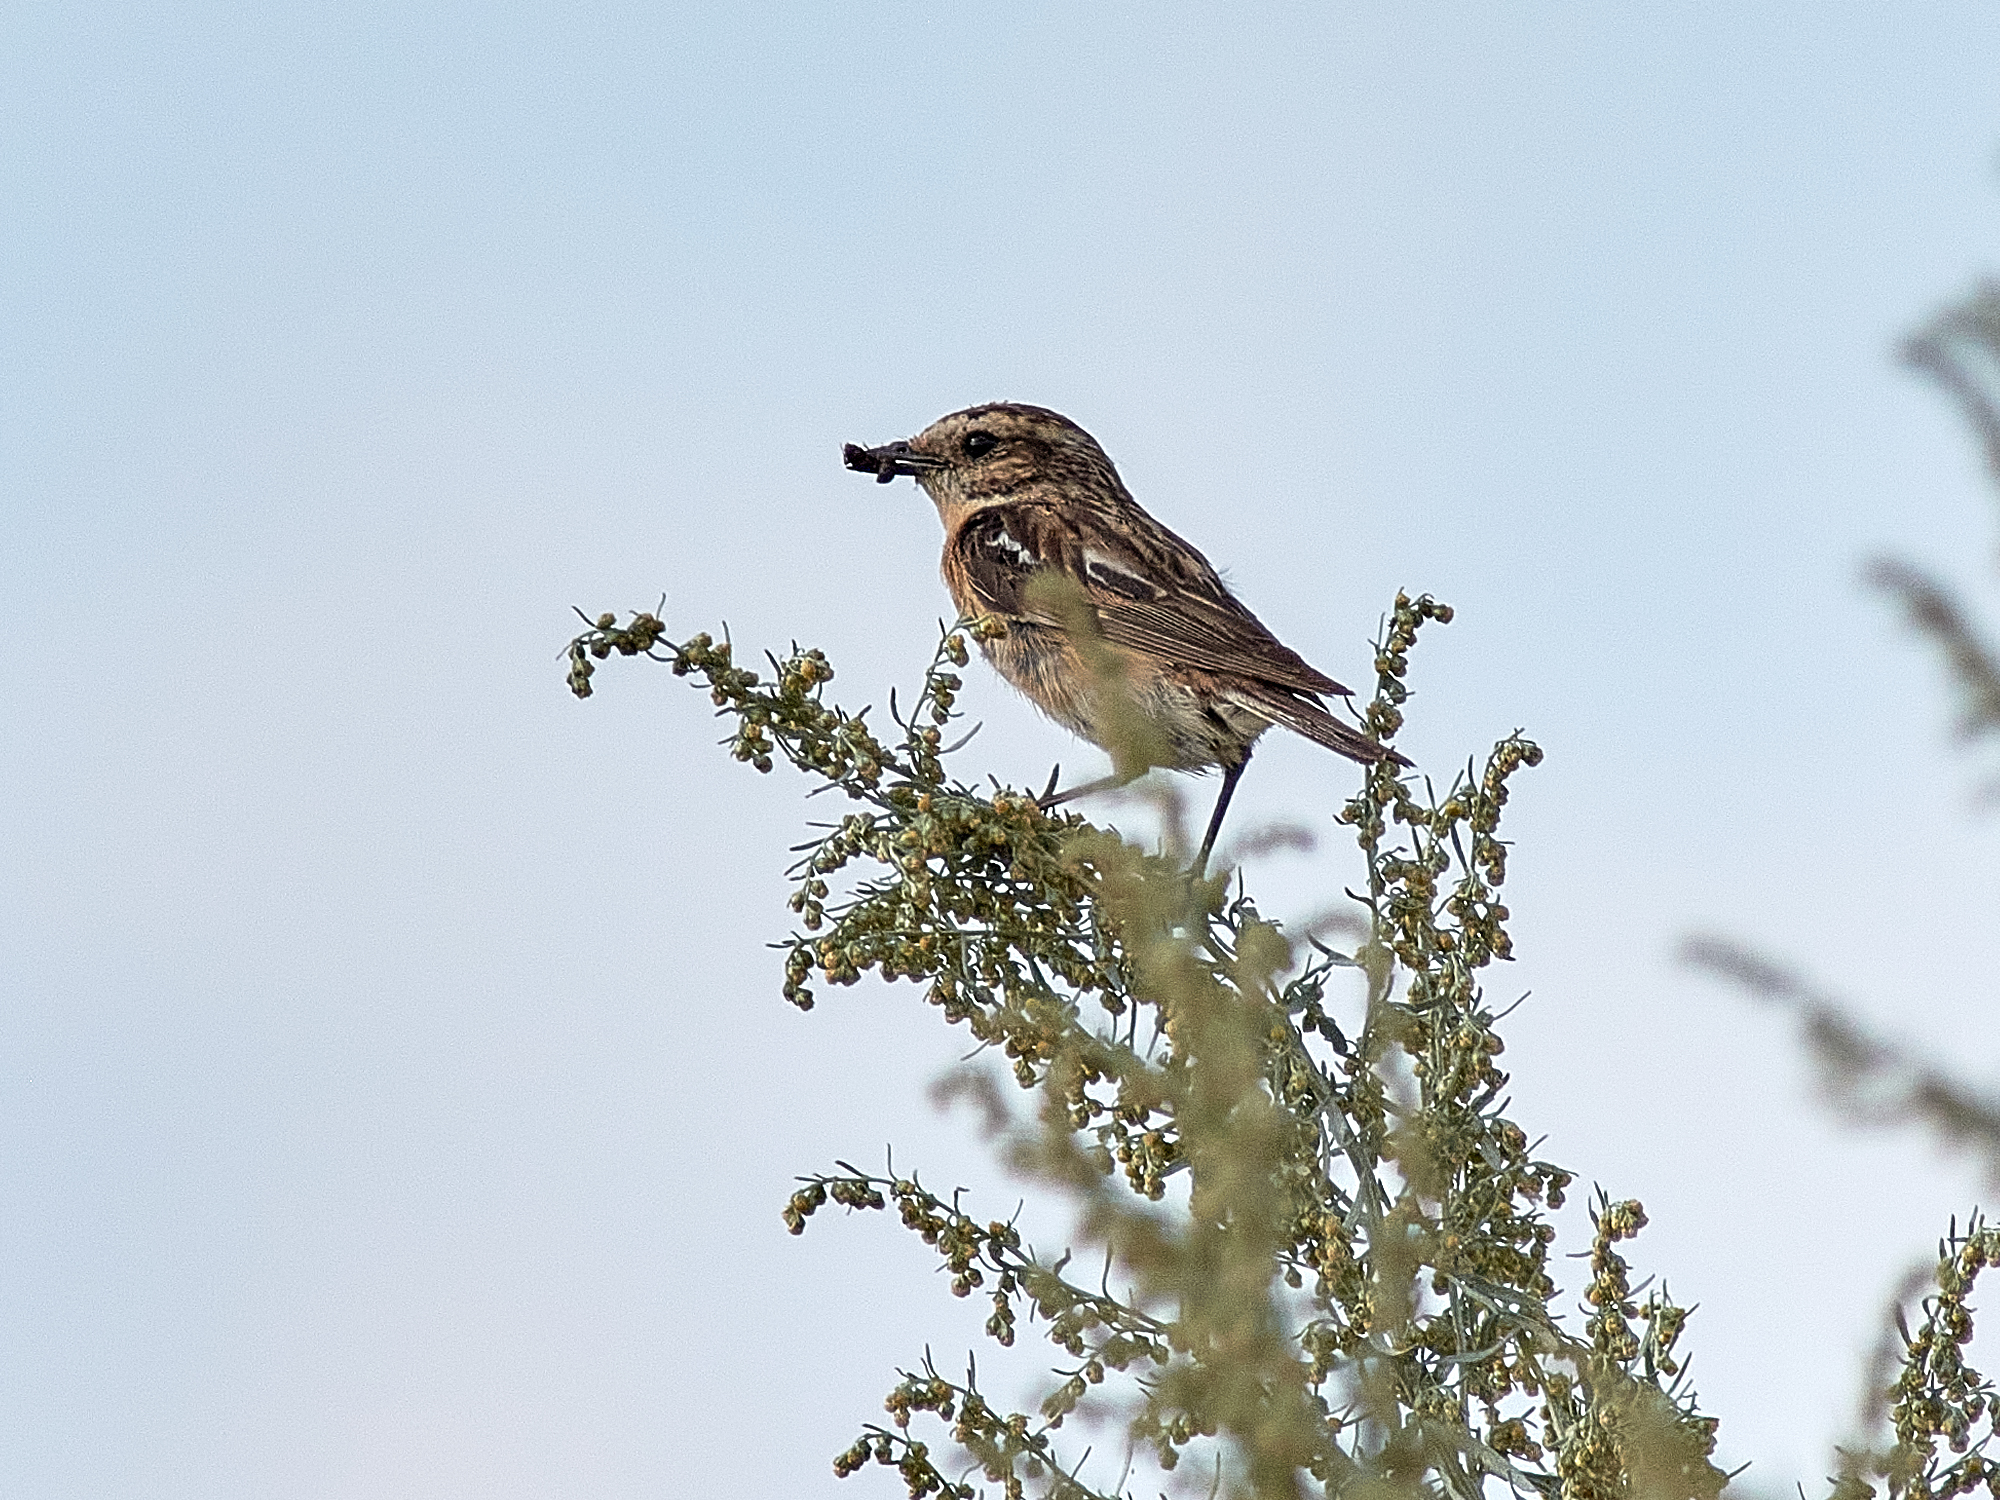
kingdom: Animalia
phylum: Chordata
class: Aves
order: Passeriformes
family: Muscicapidae
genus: Saxicola
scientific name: Saxicola rubetra
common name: Whinchat
